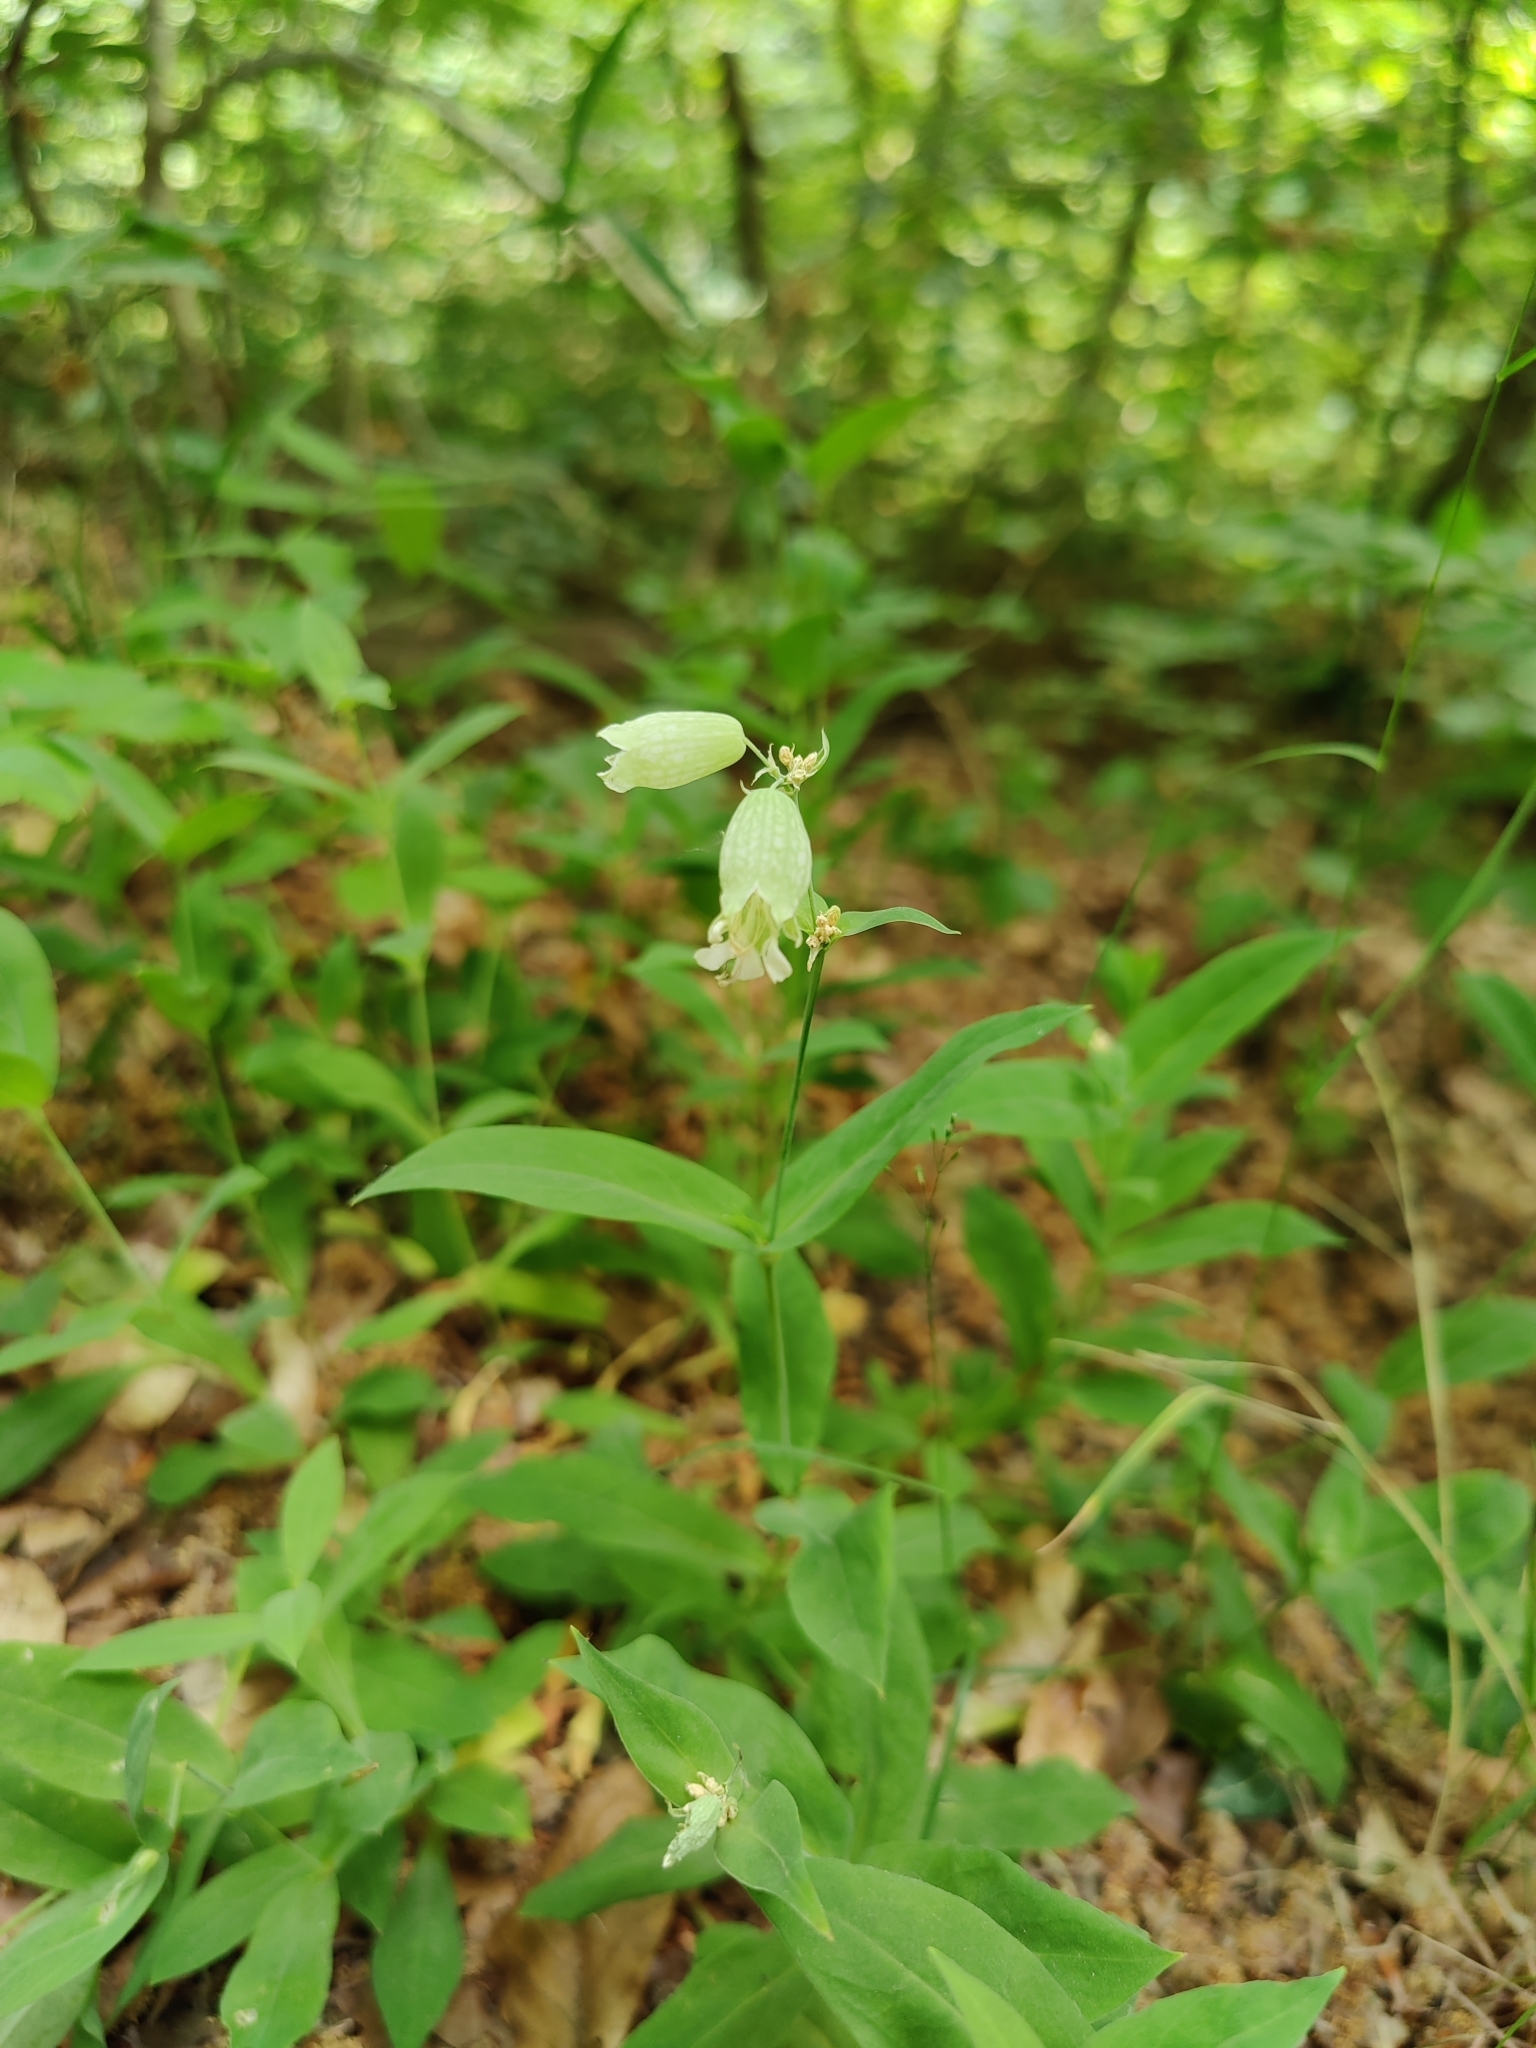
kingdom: Plantae
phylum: Tracheophyta
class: Magnoliopsida
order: Caryophyllales
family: Caryophyllaceae
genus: Silene
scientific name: Silene vulgaris
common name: Bladder campion
